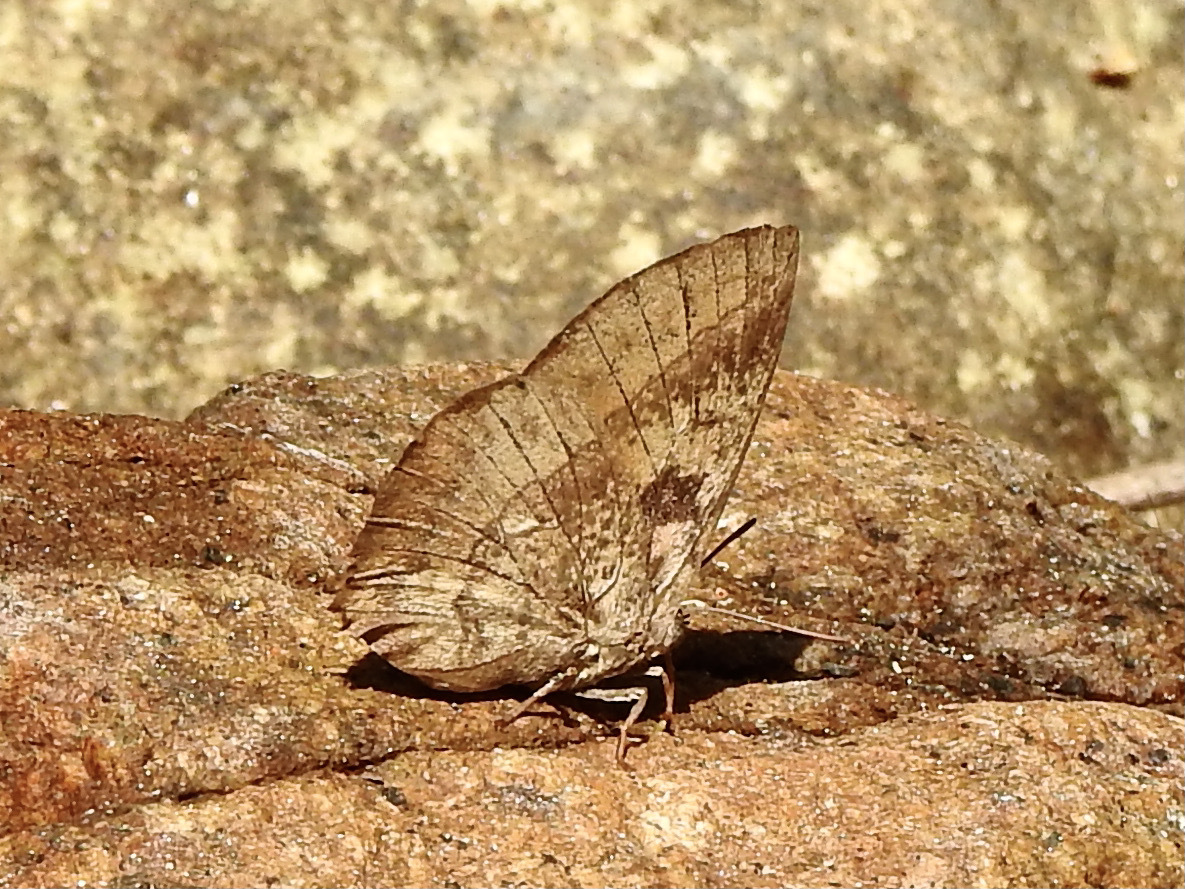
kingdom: Animalia
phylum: Arthropoda
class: Insecta
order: Lepidoptera
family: Lycaenidae
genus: Amblypodia
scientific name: Amblypodia anita
